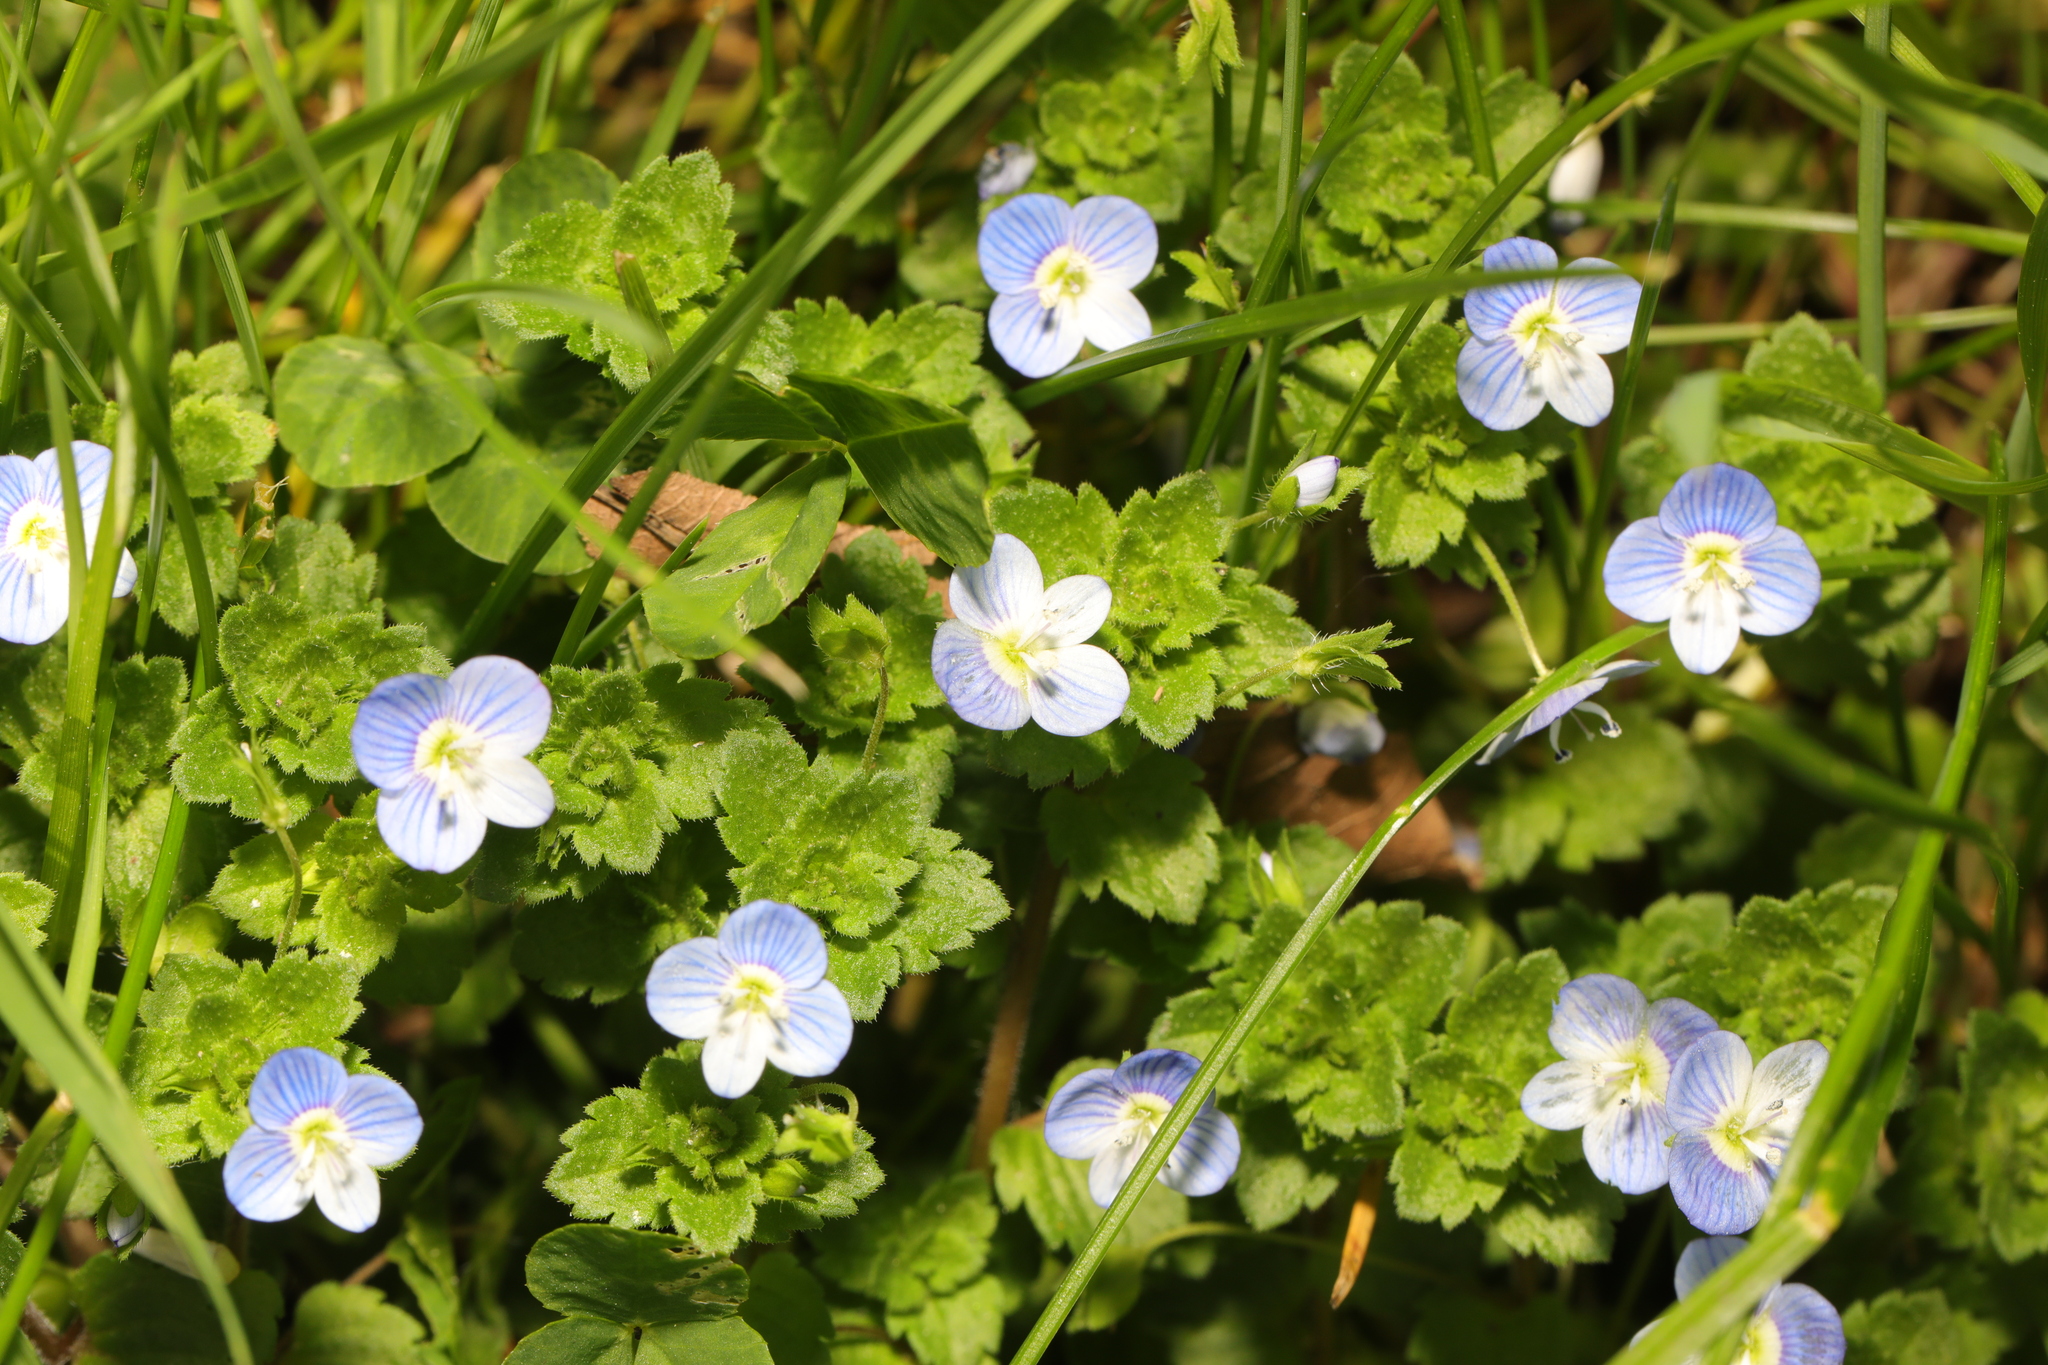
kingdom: Plantae
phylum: Tracheophyta
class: Magnoliopsida
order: Lamiales
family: Plantaginaceae
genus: Veronica
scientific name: Veronica persica
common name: Common field-speedwell
